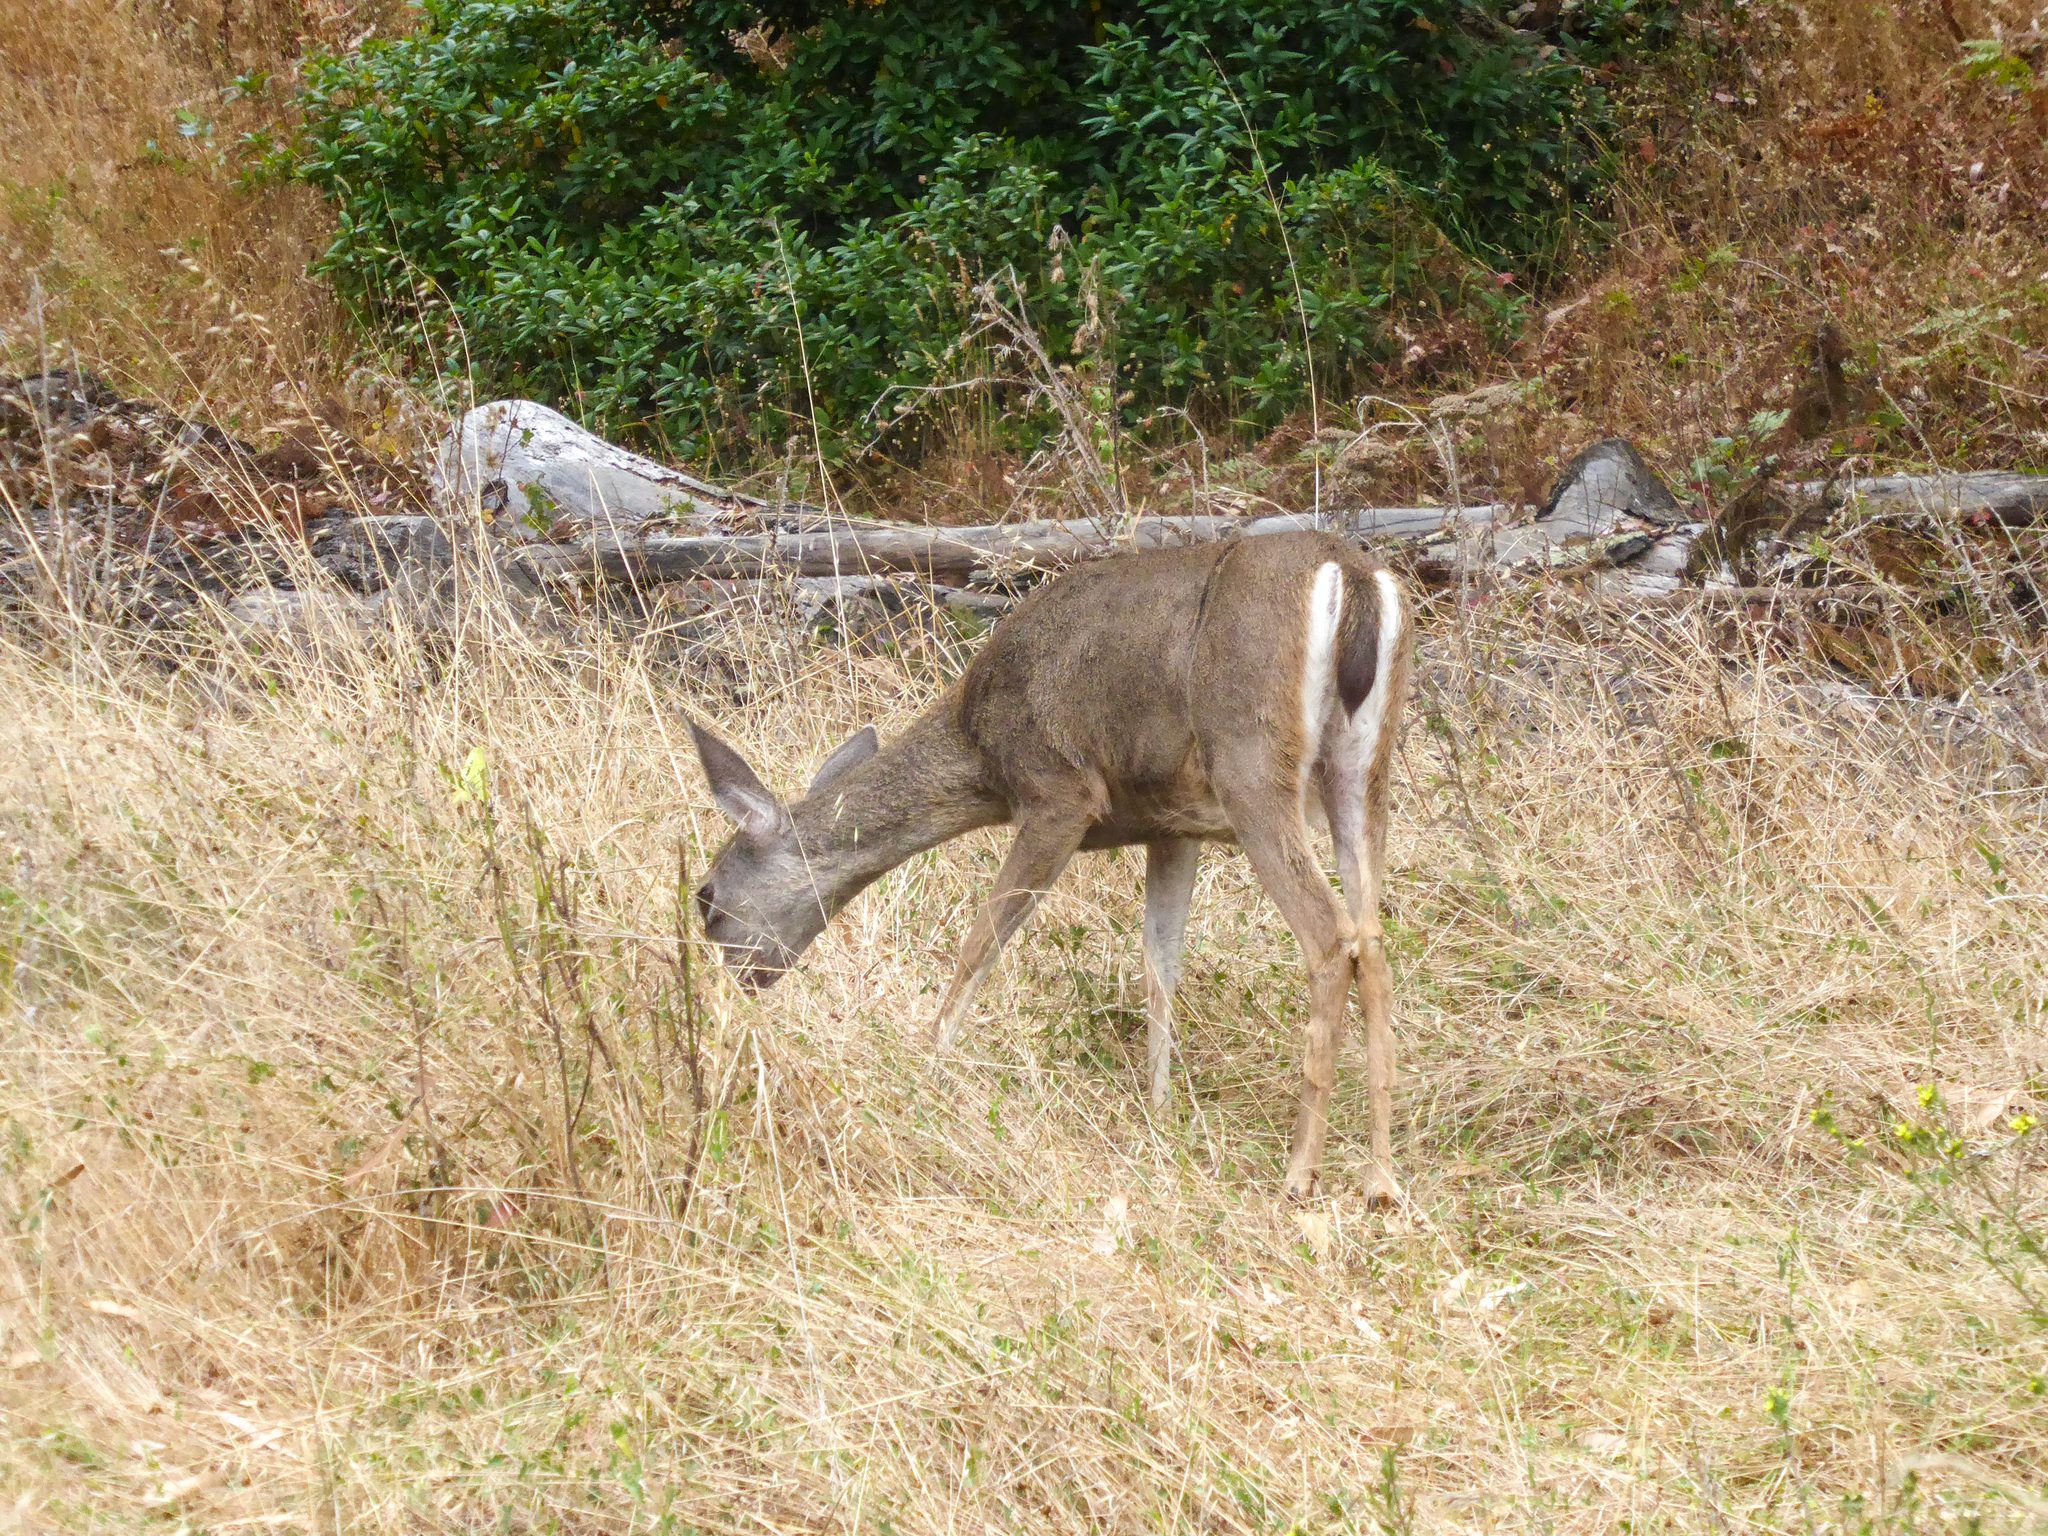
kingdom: Animalia
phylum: Chordata
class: Mammalia
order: Artiodactyla
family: Cervidae
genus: Odocoileus
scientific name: Odocoileus hemionus
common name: Mule deer
